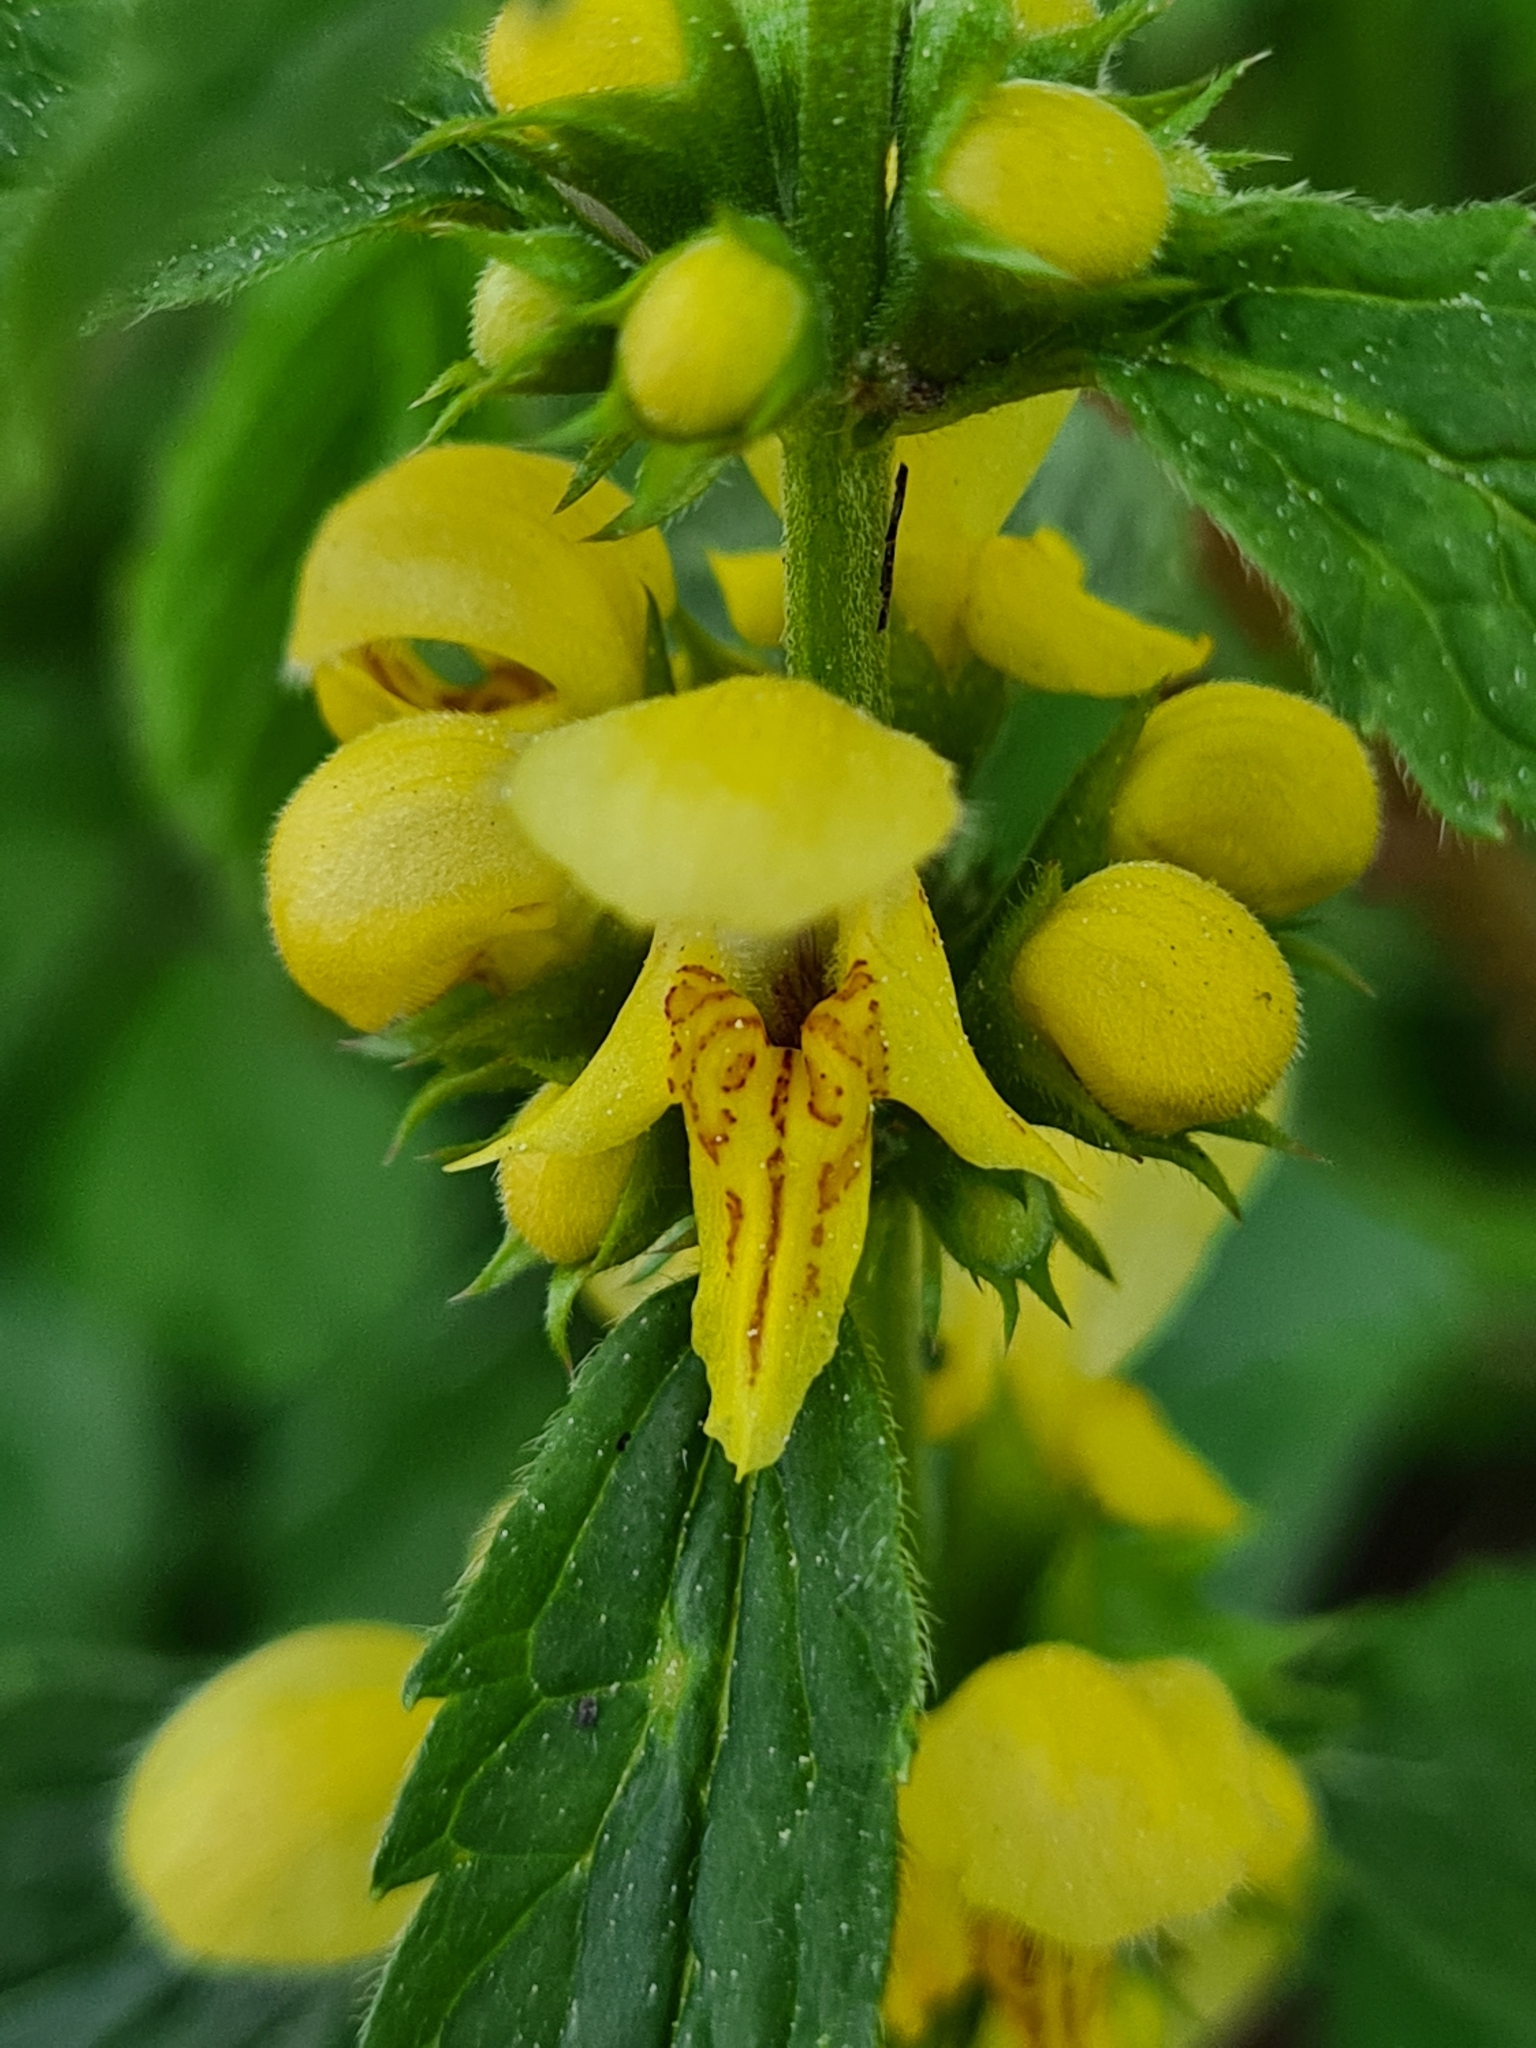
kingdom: Plantae
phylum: Tracheophyta
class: Magnoliopsida
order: Lamiales
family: Lamiaceae
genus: Lamium
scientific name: Lamium galeobdolon
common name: Yellow archangel
